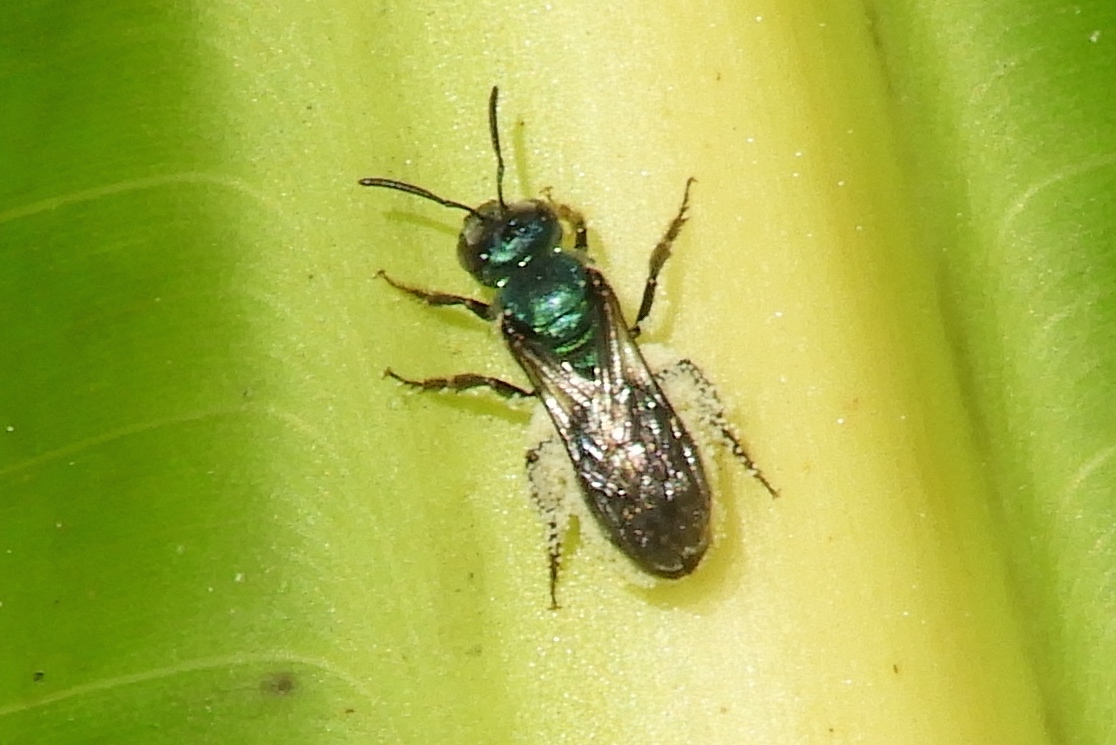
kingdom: Animalia
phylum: Arthropoda
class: Insecta
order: Hymenoptera
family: Halictidae
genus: Augochlora
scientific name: Augochlora
